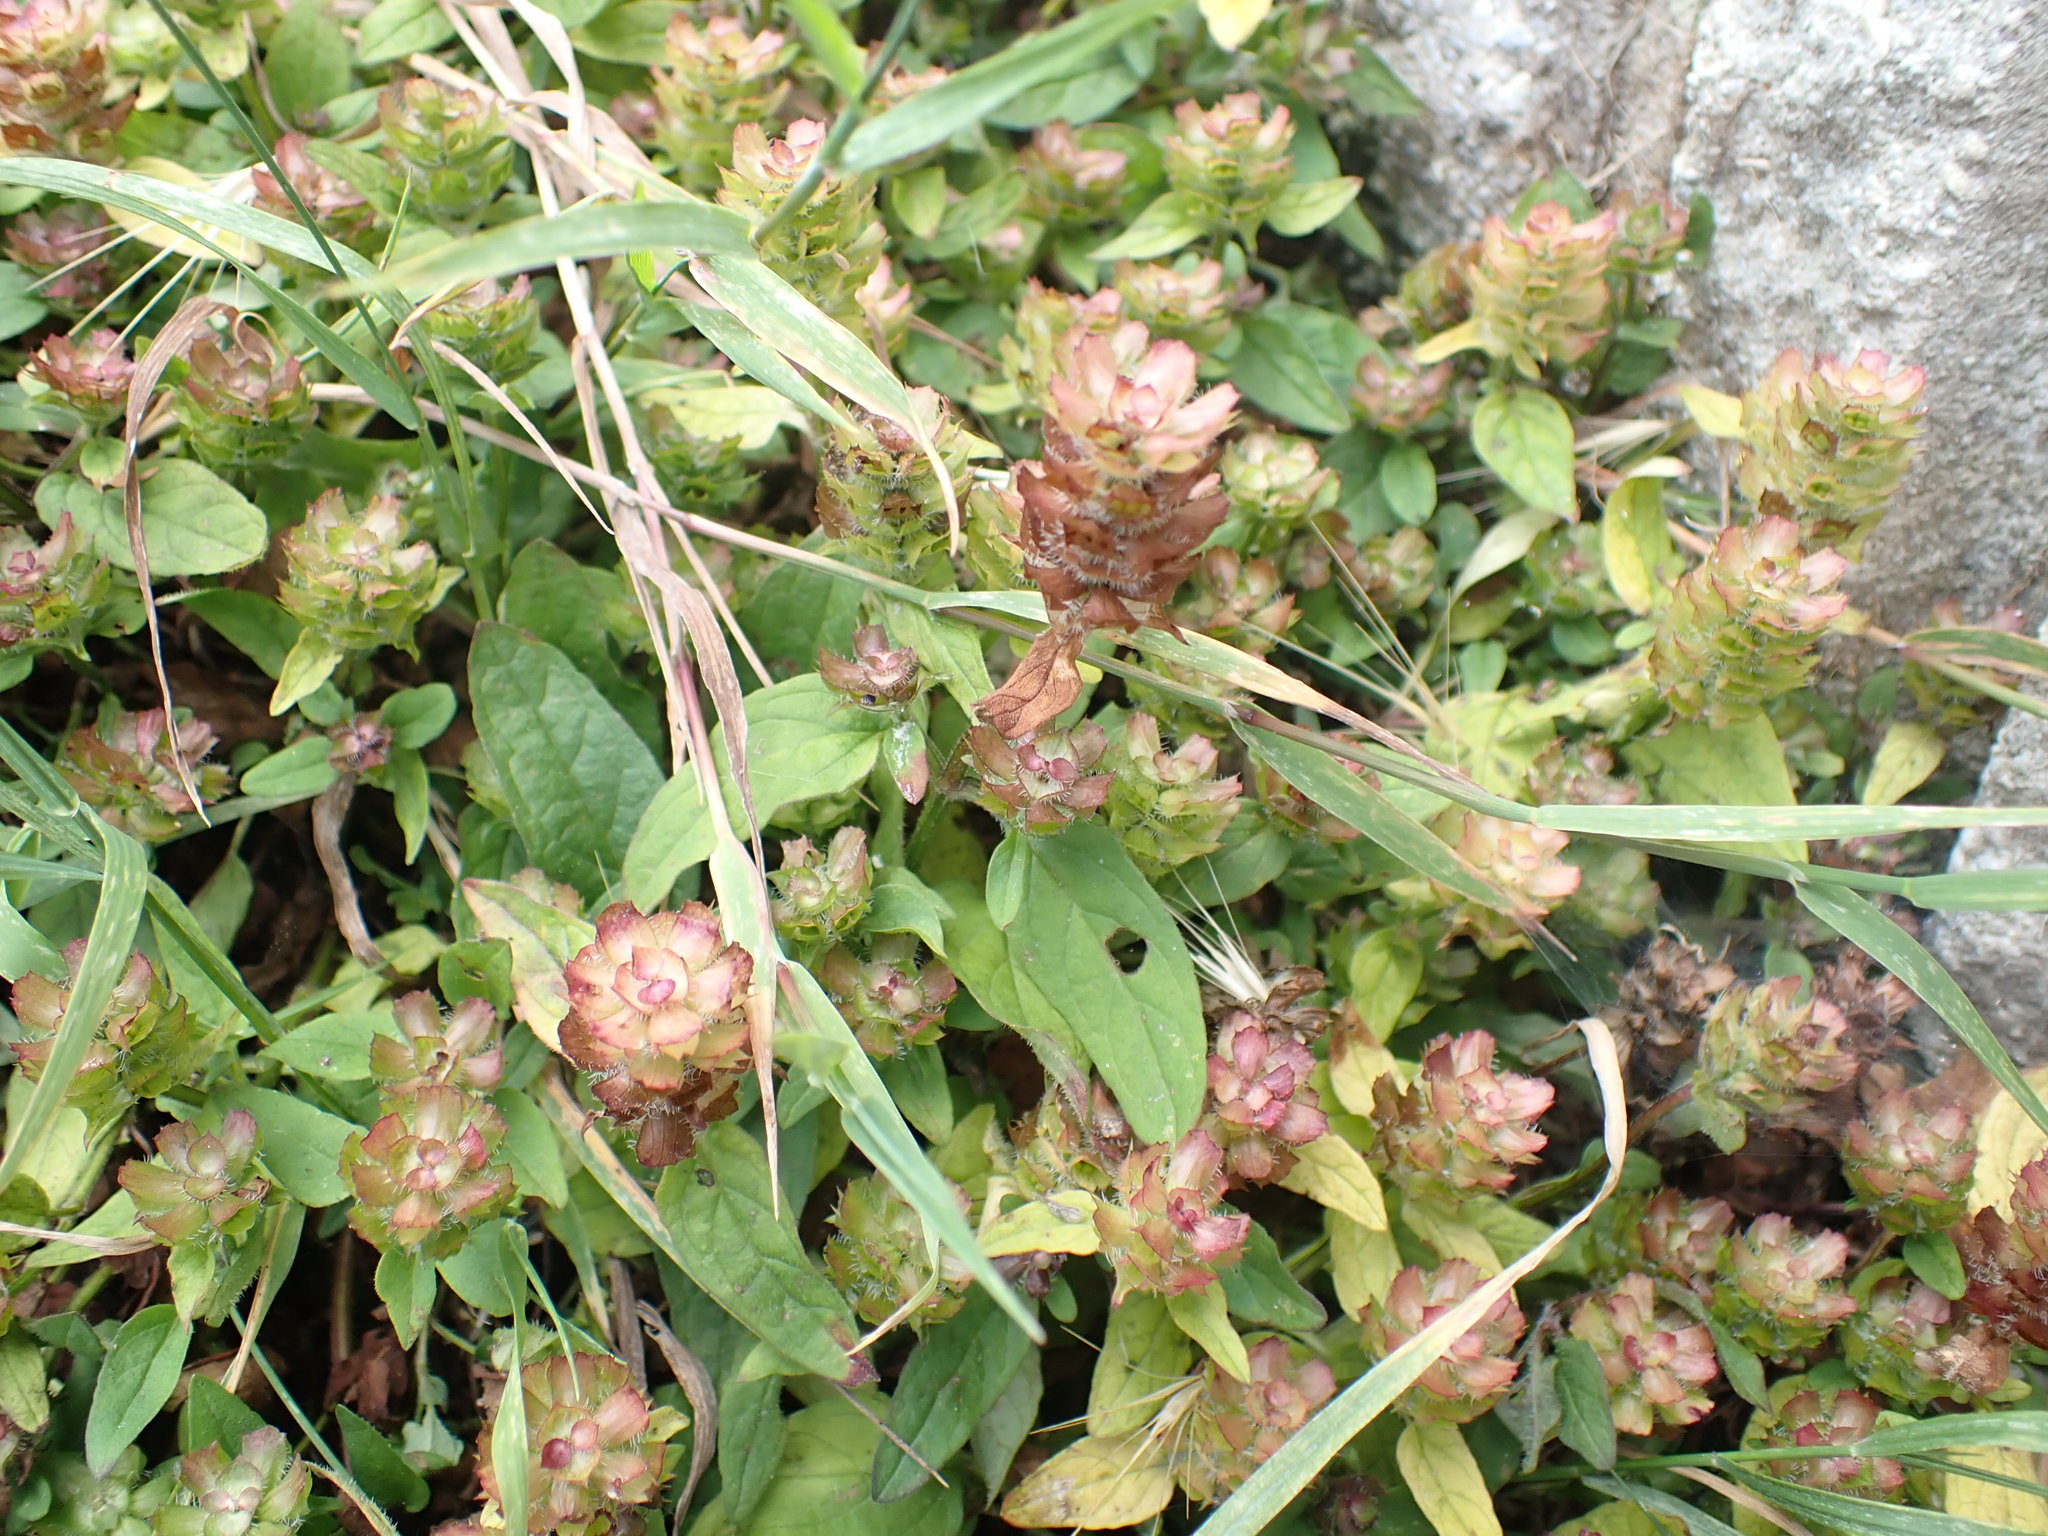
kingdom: Plantae
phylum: Tracheophyta
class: Magnoliopsida
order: Lamiales
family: Lamiaceae
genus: Prunella
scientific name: Prunella vulgaris
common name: Heal-all
